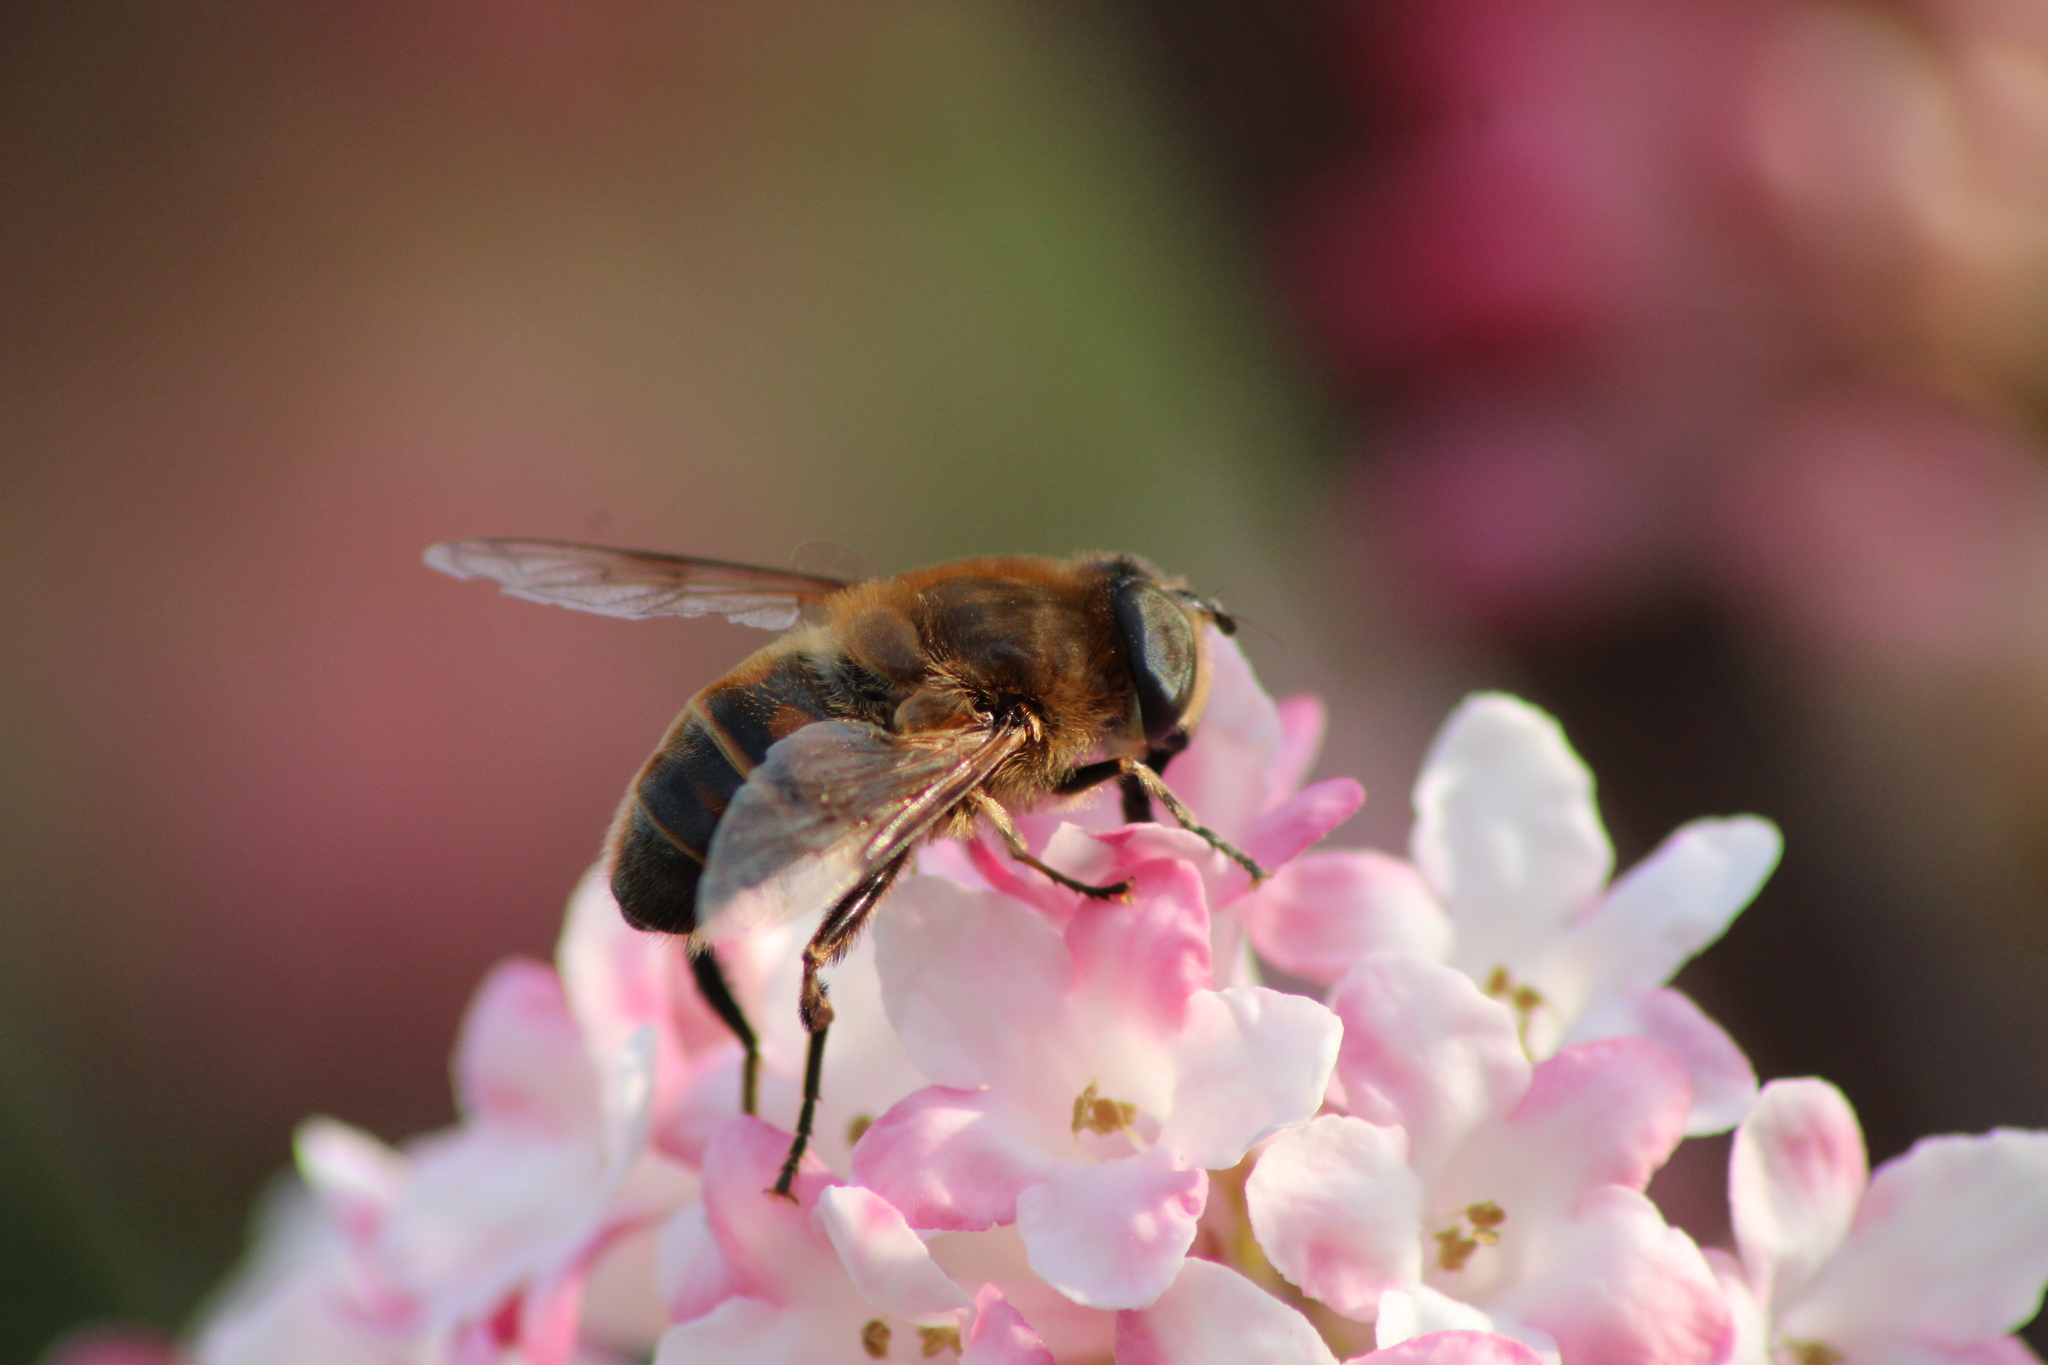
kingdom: Animalia
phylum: Arthropoda
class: Insecta
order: Diptera
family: Syrphidae
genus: Eristalis
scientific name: Eristalis tenax
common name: Drone fly
